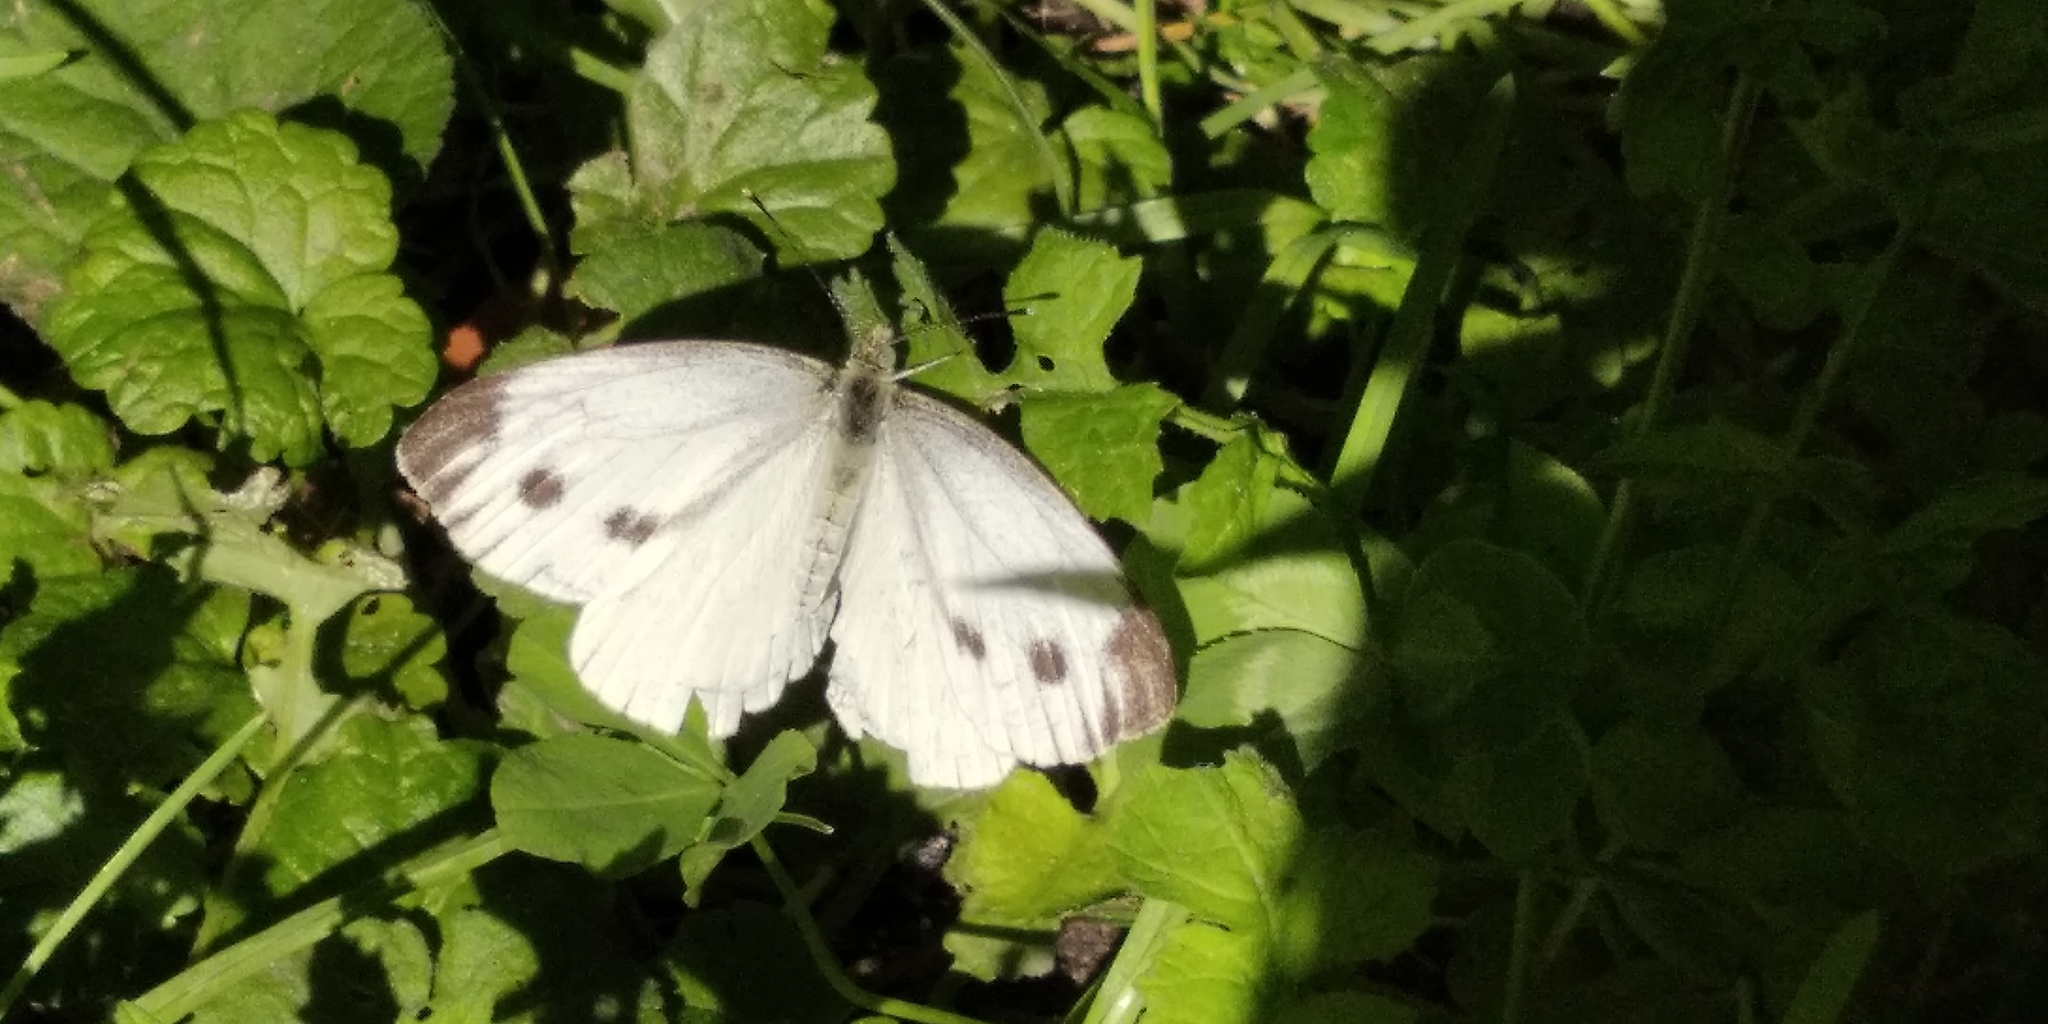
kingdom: Animalia
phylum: Arthropoda
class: Insecta
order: Lepidoptera
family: Pieridae
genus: Pieris
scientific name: Pieris napi
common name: Green-veined white
